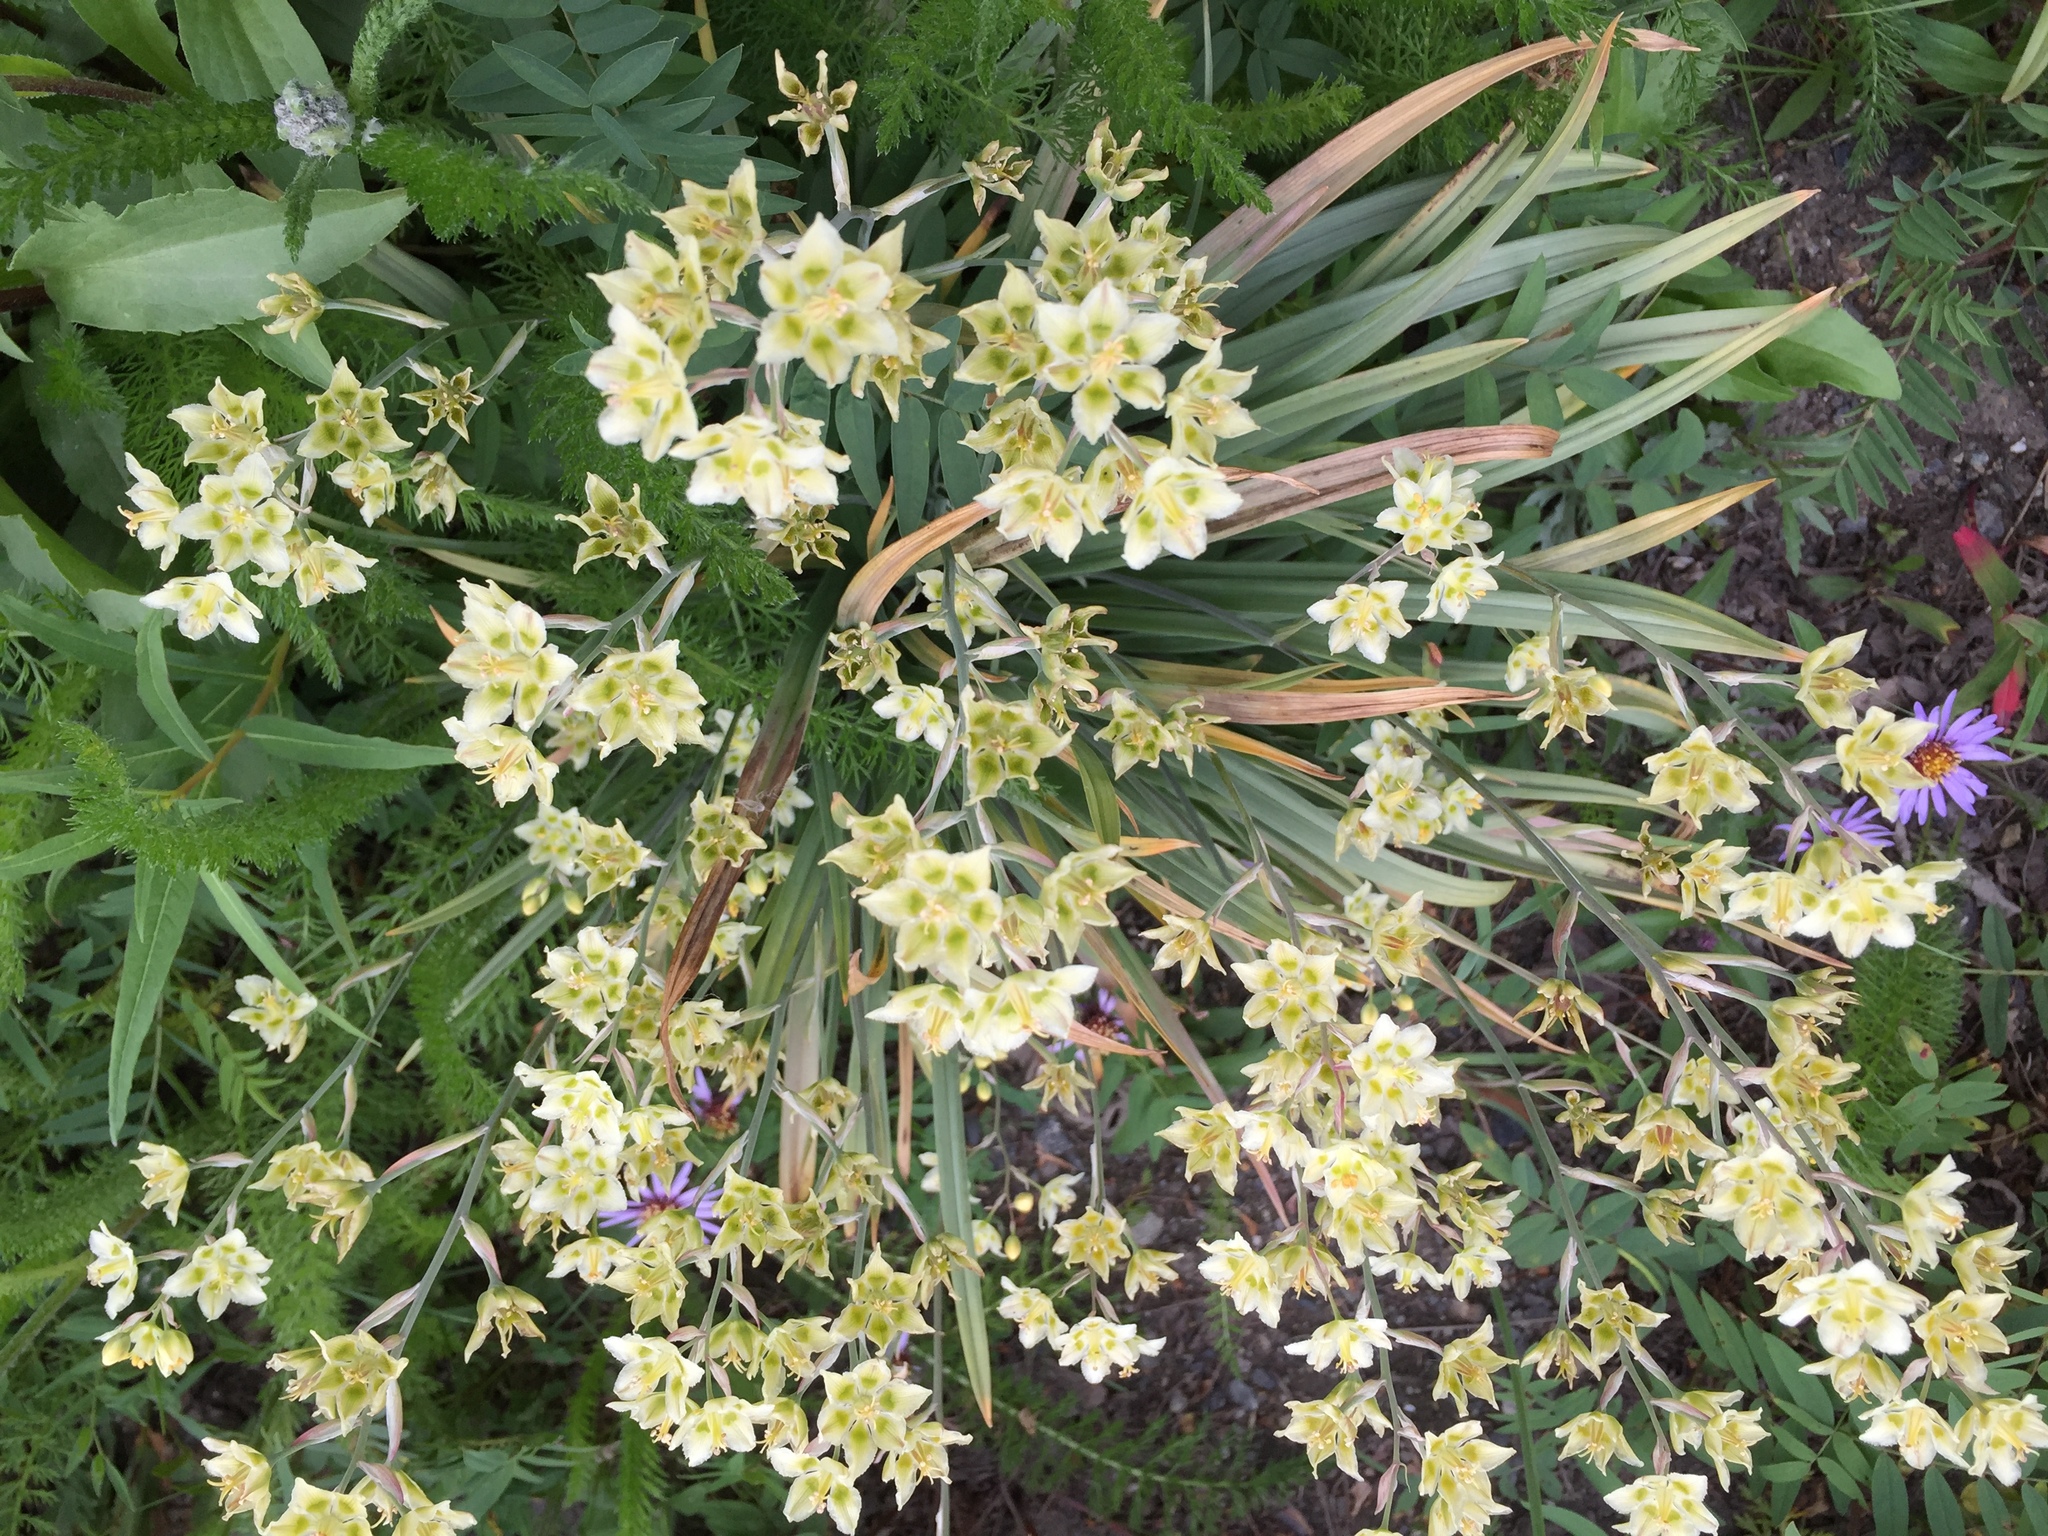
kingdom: Plantae
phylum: Tracheophyta
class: Liliopsida
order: Liliales
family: Melanthiaceae
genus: Anticlea
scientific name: Anticlea elegans
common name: Mountain death camas
